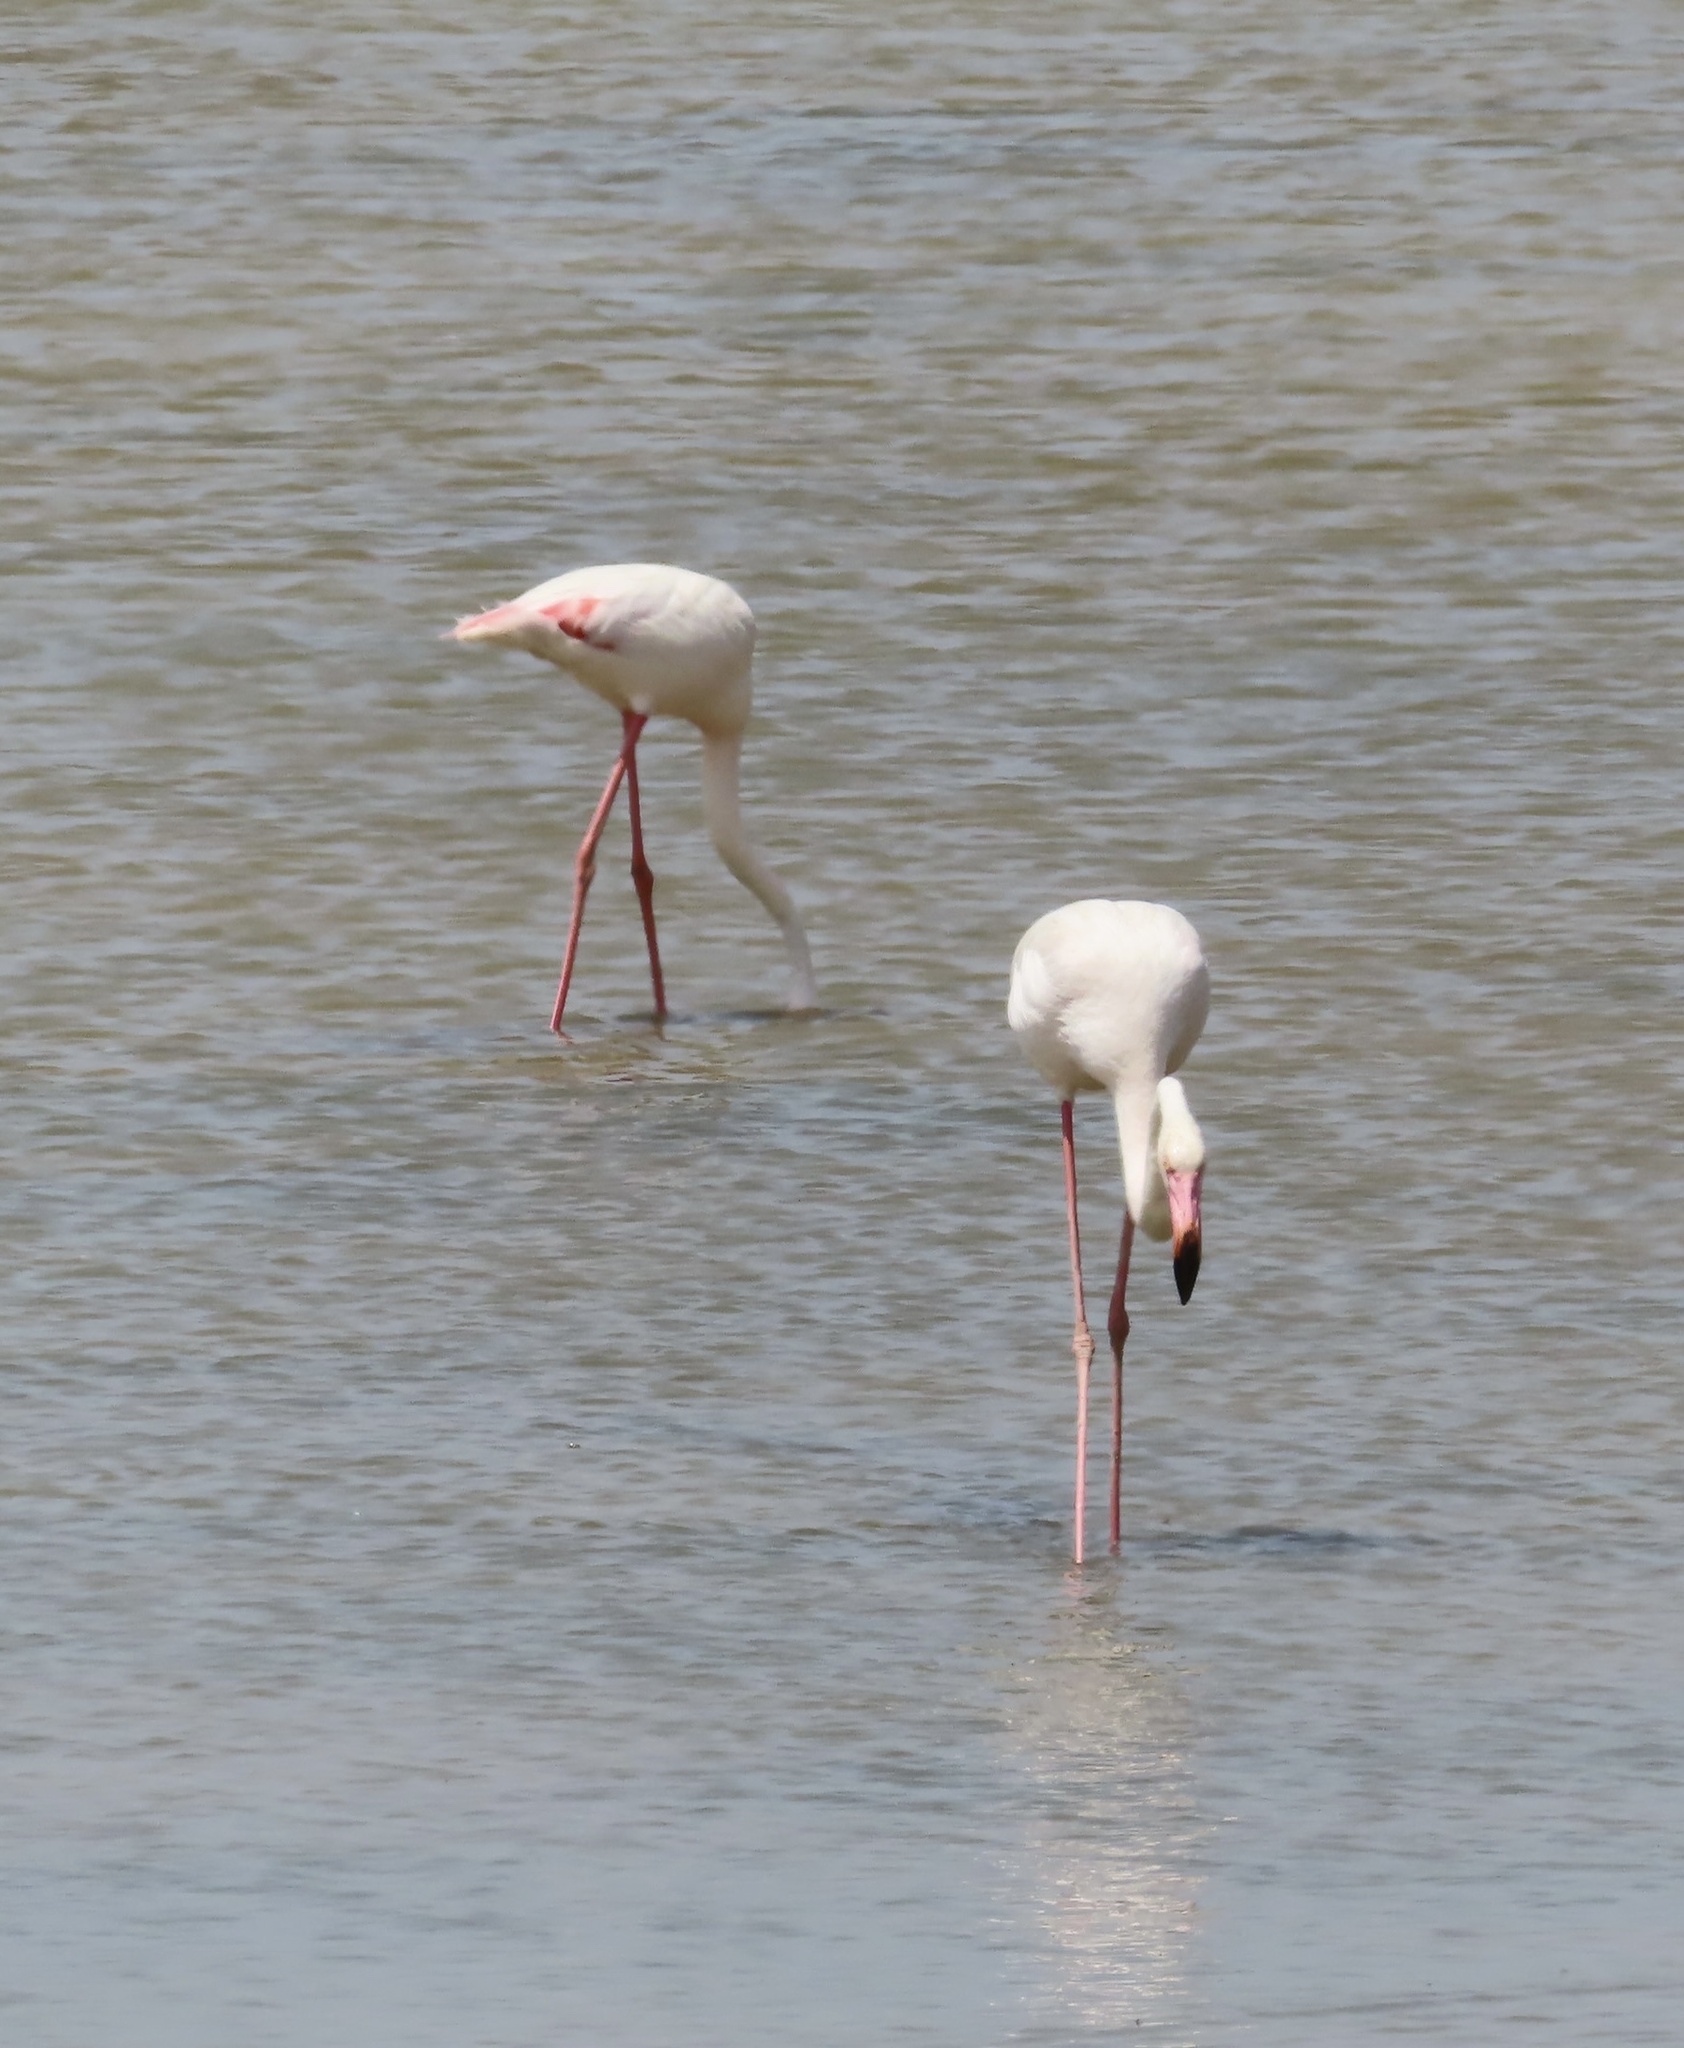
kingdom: Animalia
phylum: Chordata
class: Aves
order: Phoenicopteriformes
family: Phoenicopteridae
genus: Phoenicopterus
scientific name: Phoenicopterus roseus
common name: Greater flamingo
